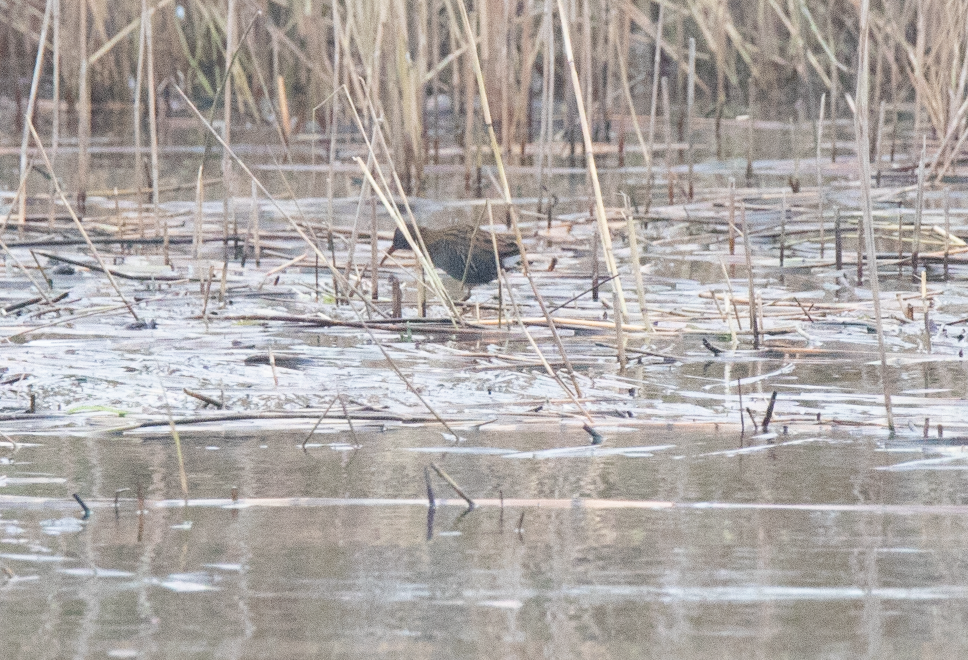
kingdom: Animalia
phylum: Chordata
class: Aves
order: Gruiformes
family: Rallidae
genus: Rallus
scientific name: Rallus aquaticus
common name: Water rail
